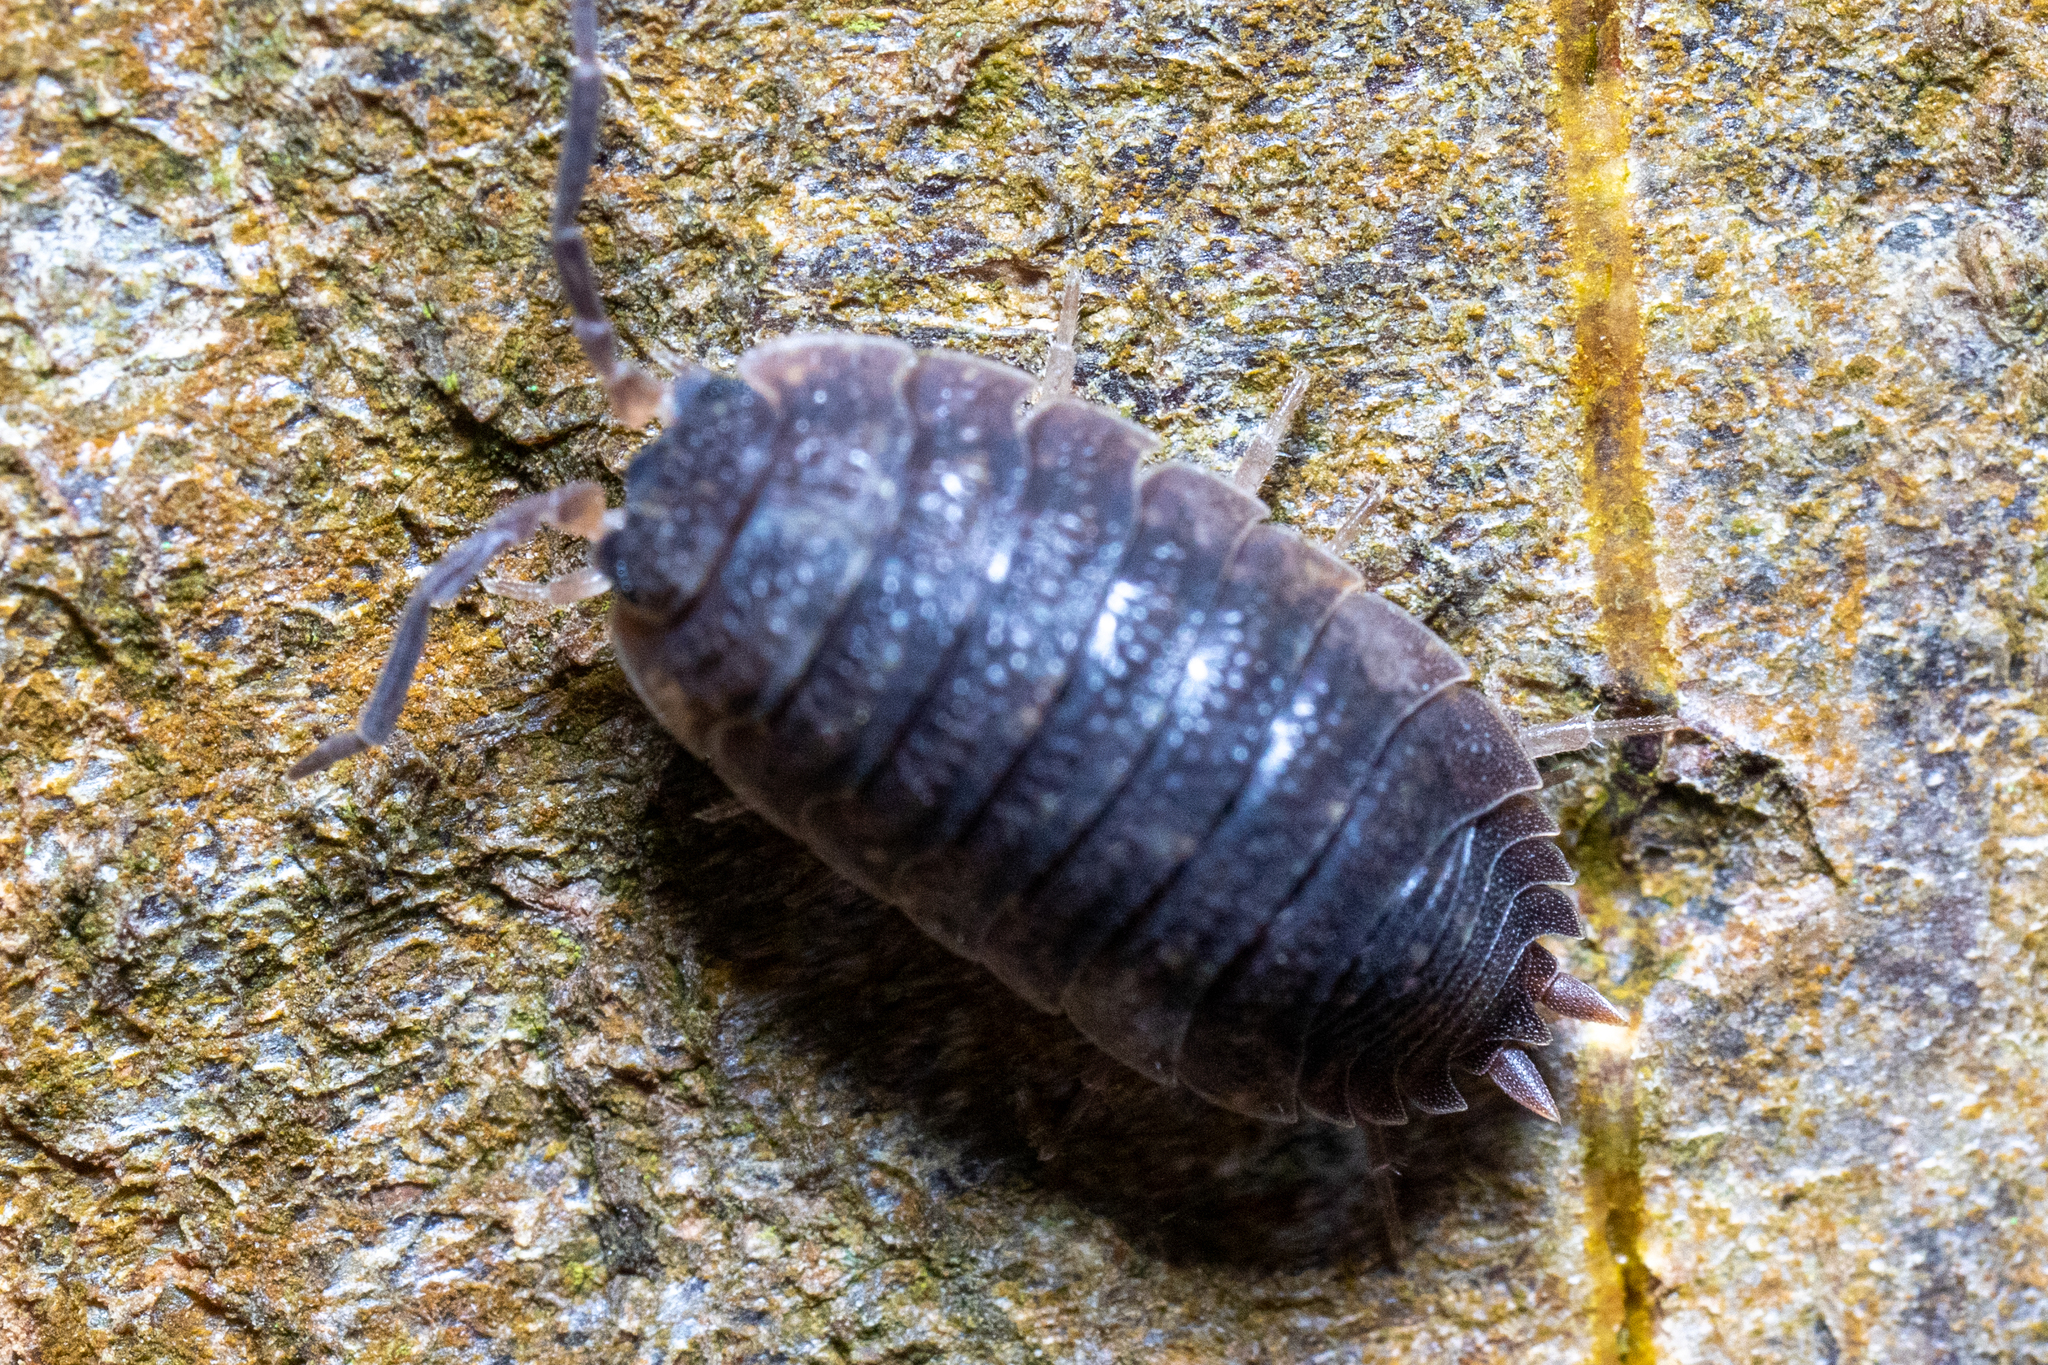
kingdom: Animalia
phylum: Arthropoda
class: Malacostraca
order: Isopoda
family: Porcellionidae
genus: Porcellio
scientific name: Porcellio scaber
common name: Common rough woodlouse
